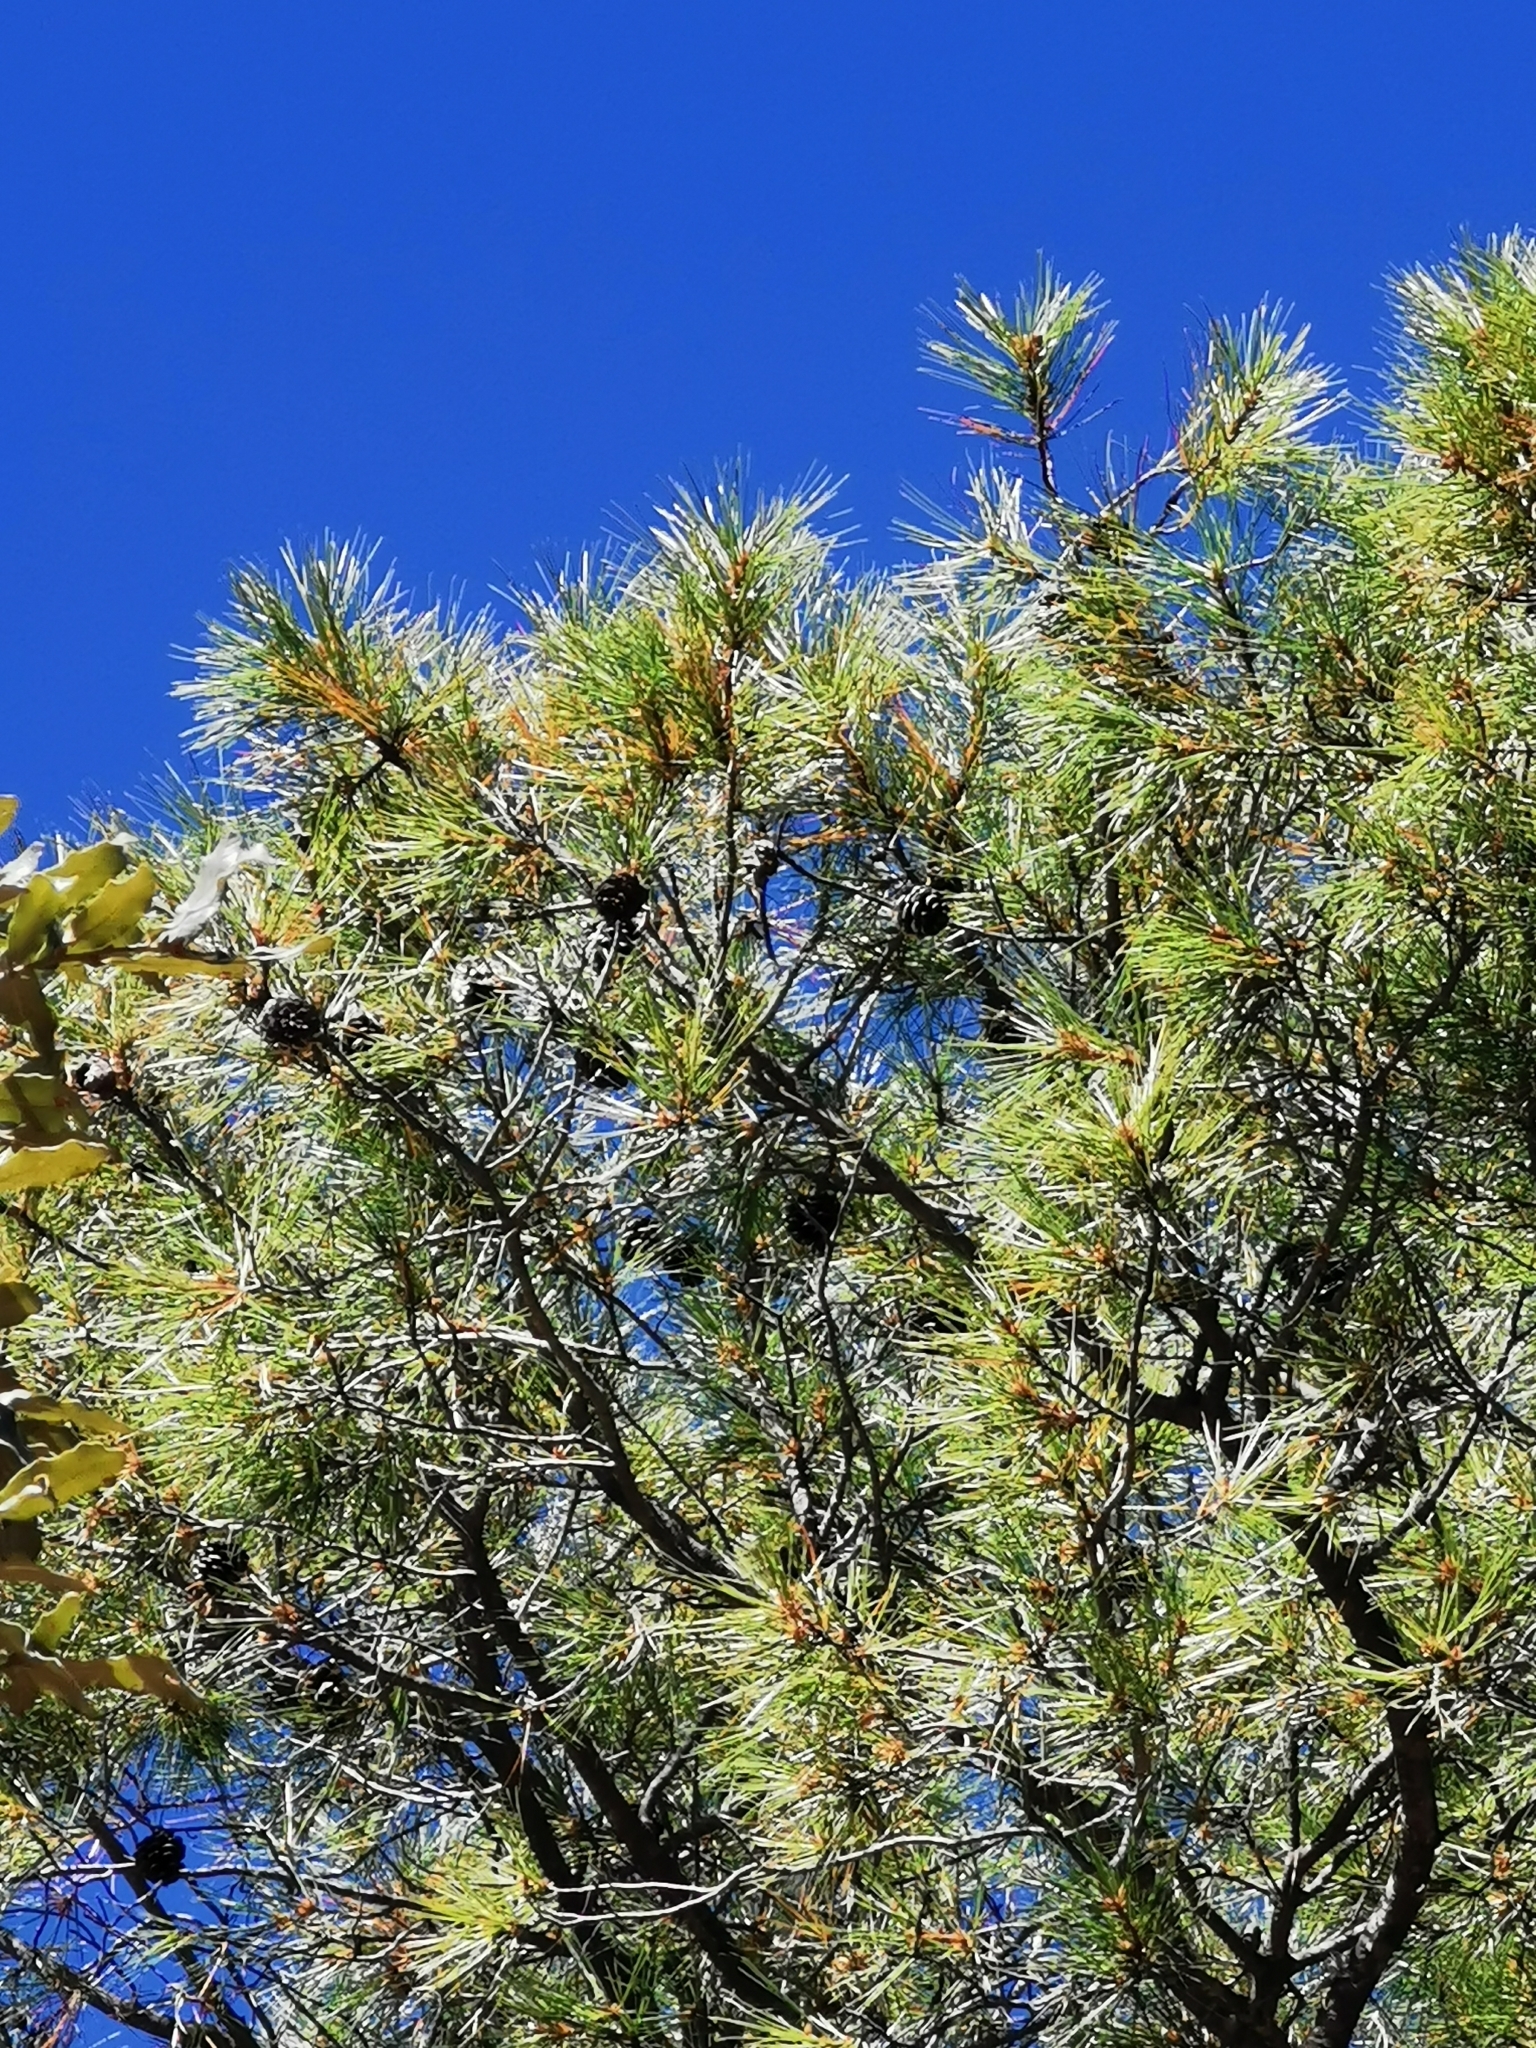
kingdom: Plantae
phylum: Tracheophyta
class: Pinopsida
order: Pinales
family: Pinaceae
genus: Pinus
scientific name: Pinus leiophylla
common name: Chihuahua pine
